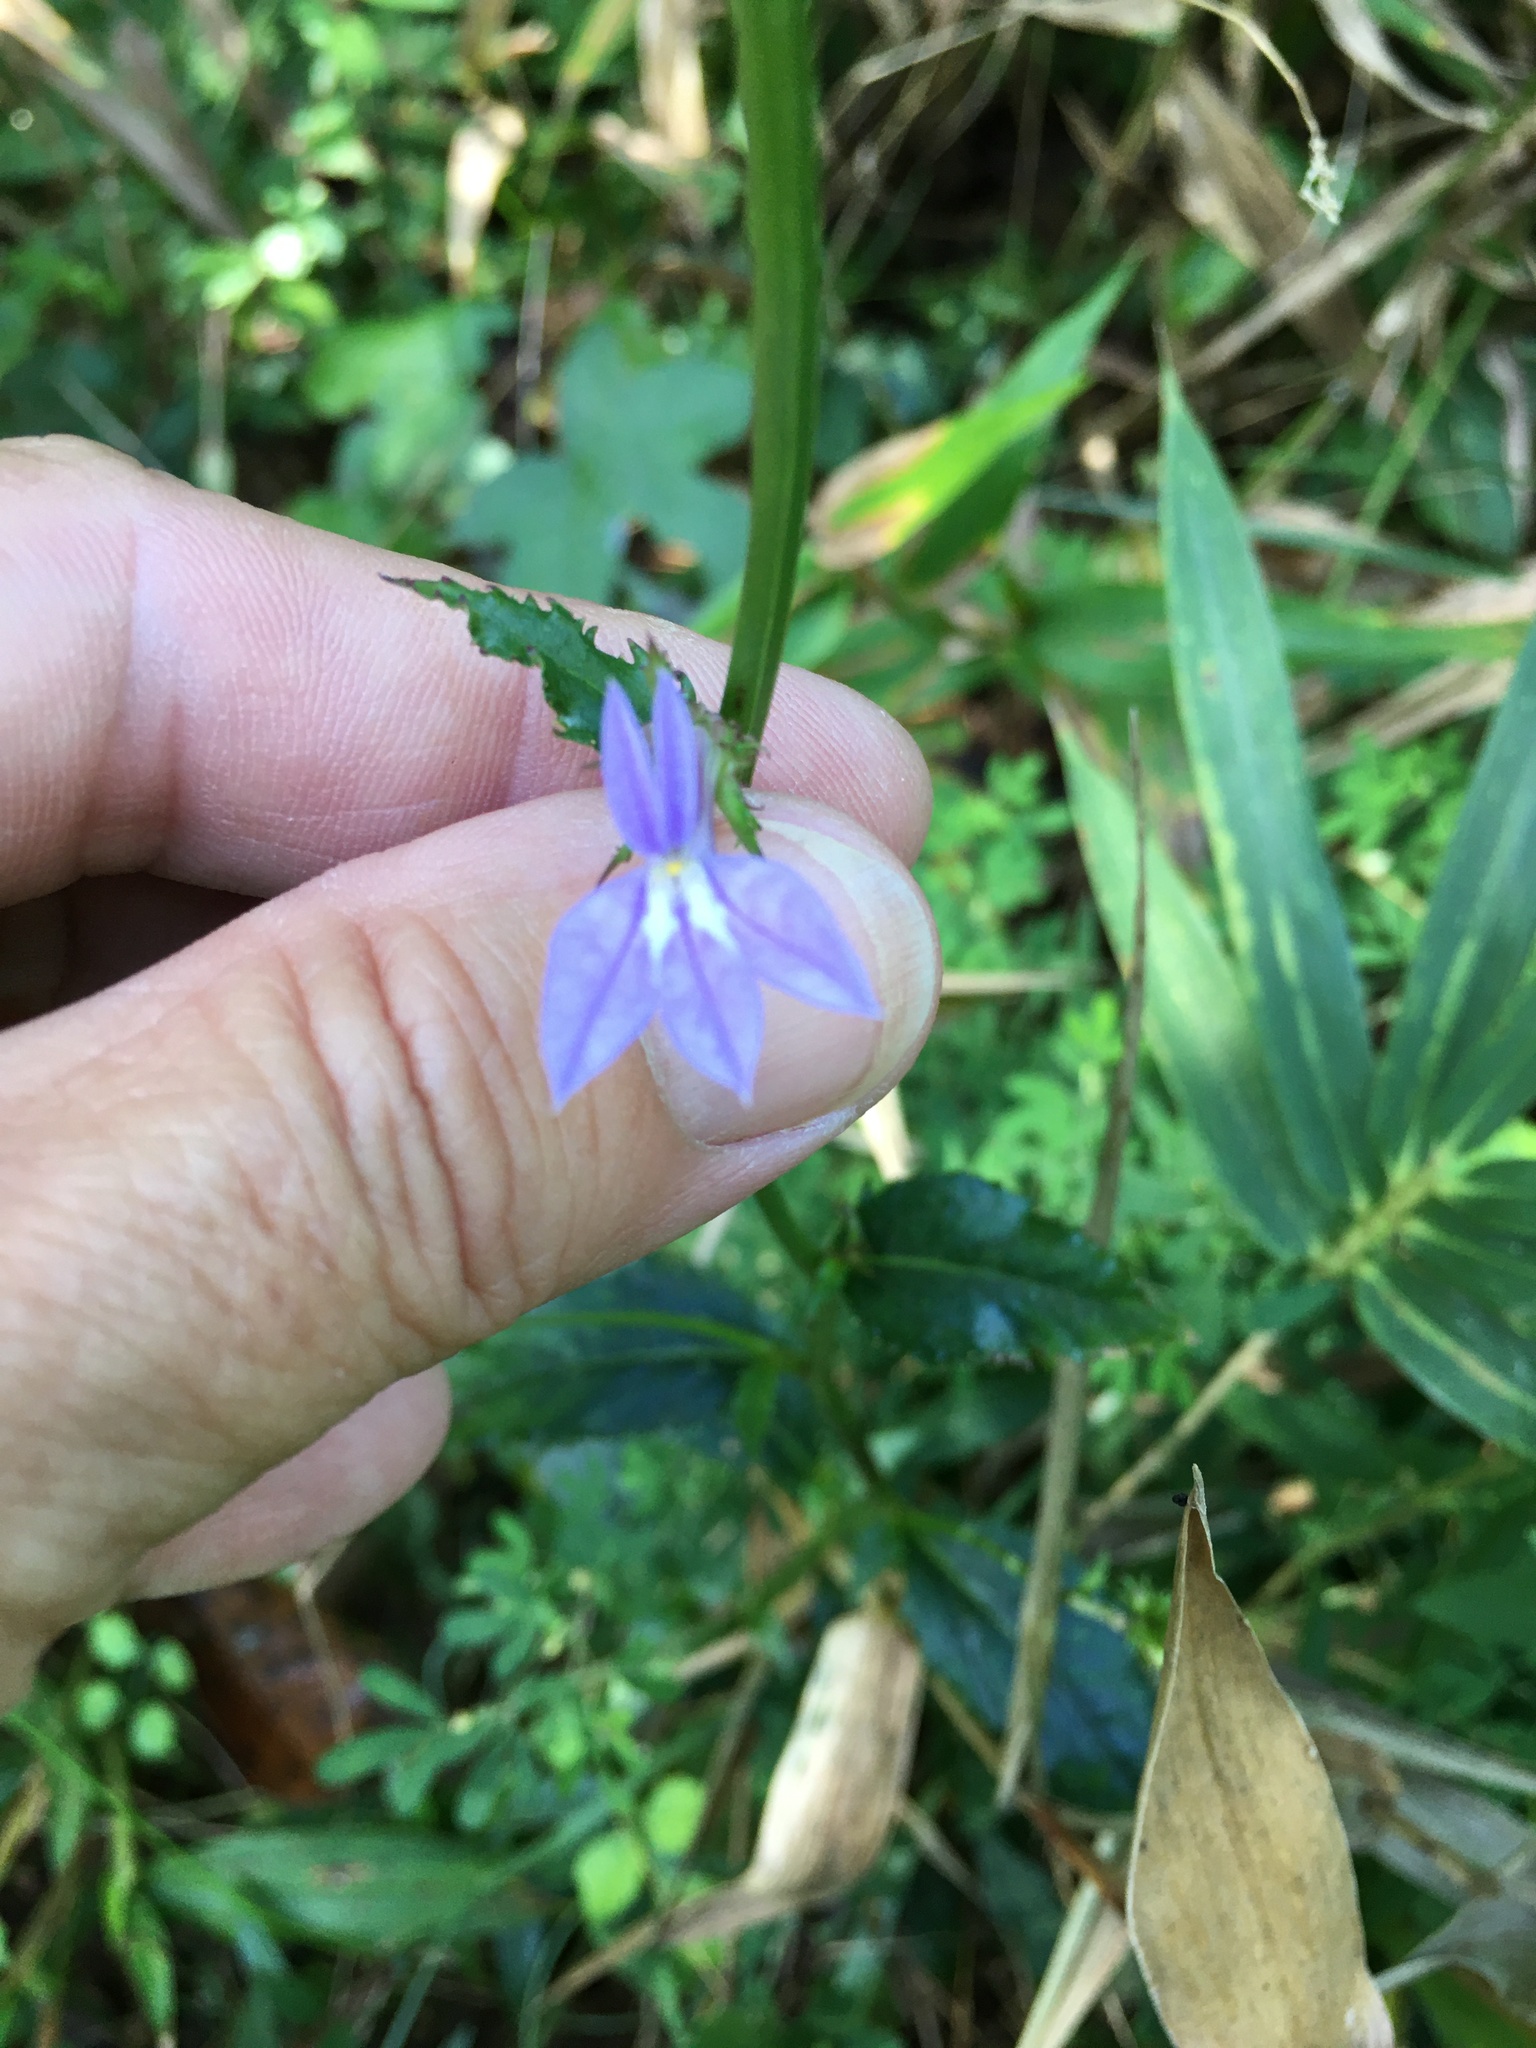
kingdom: Plantae
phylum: Tracheophyta
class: Magnoliopsida
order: Asterales
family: Campanulaceae
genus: Lobelia
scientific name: Lobelia georgiana
